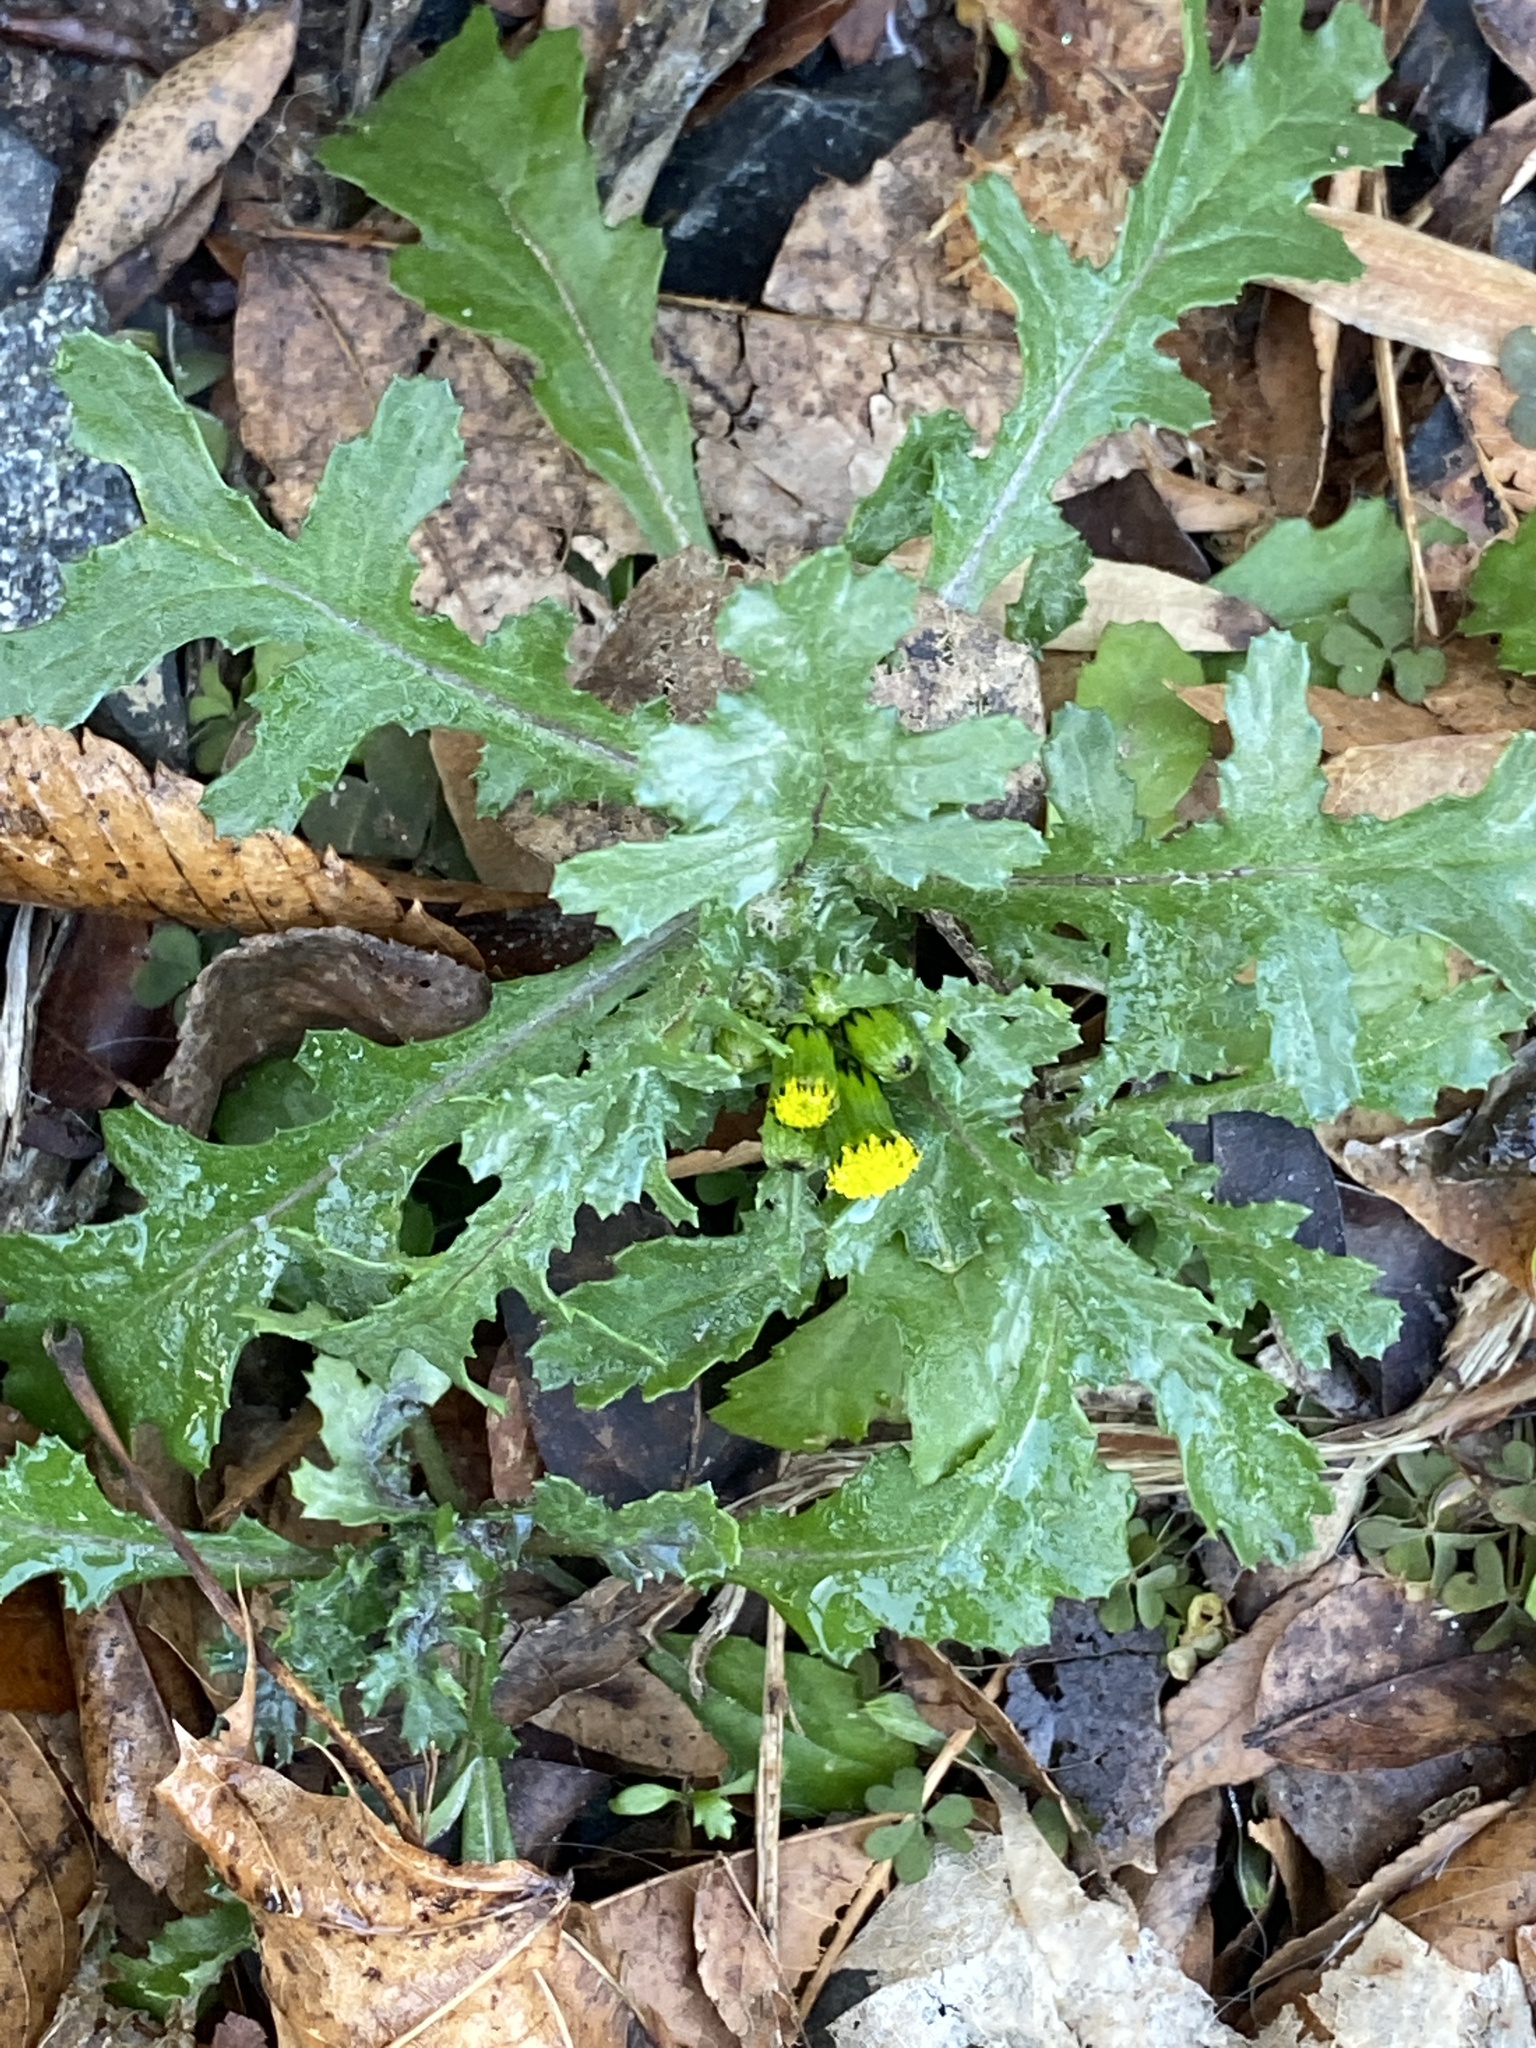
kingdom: Plantae
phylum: Tracheophyta
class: Magnoliopsida
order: Asterales
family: Asteraceae
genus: Senecio
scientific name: Senecio vulgaris
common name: Old-man-in-the-spring
